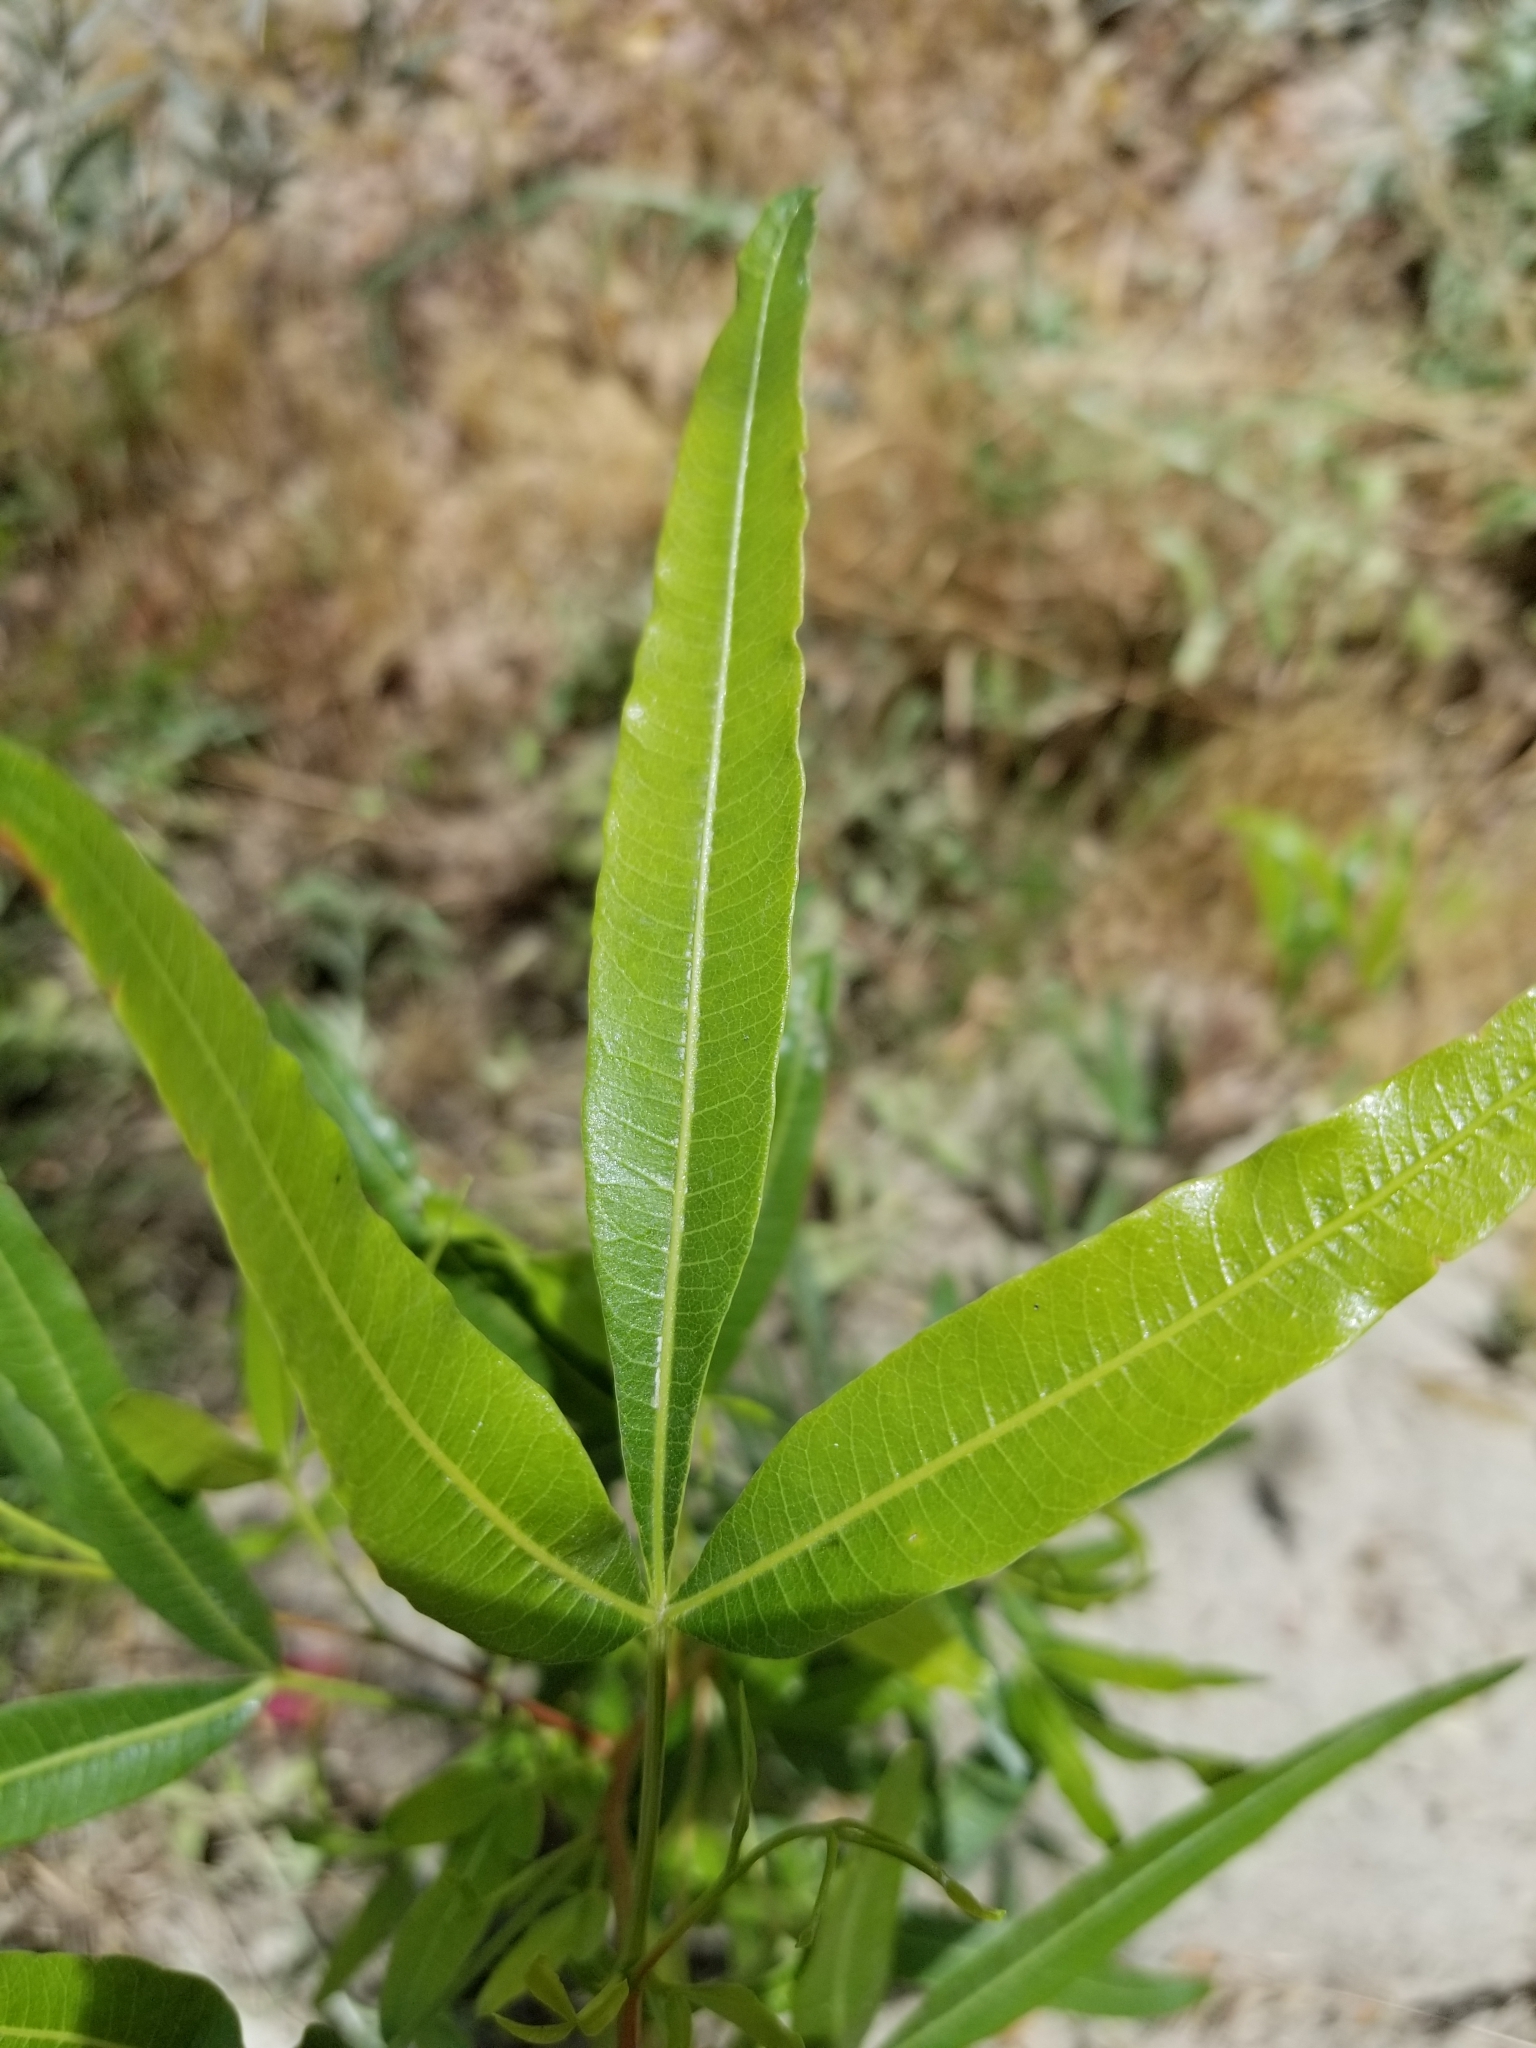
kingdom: Plantae
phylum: Tracheophyta
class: Magnoliopsida
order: Sapindales
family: Anacardiaceae
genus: Searsia
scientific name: Searsia lancea
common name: Cashew
